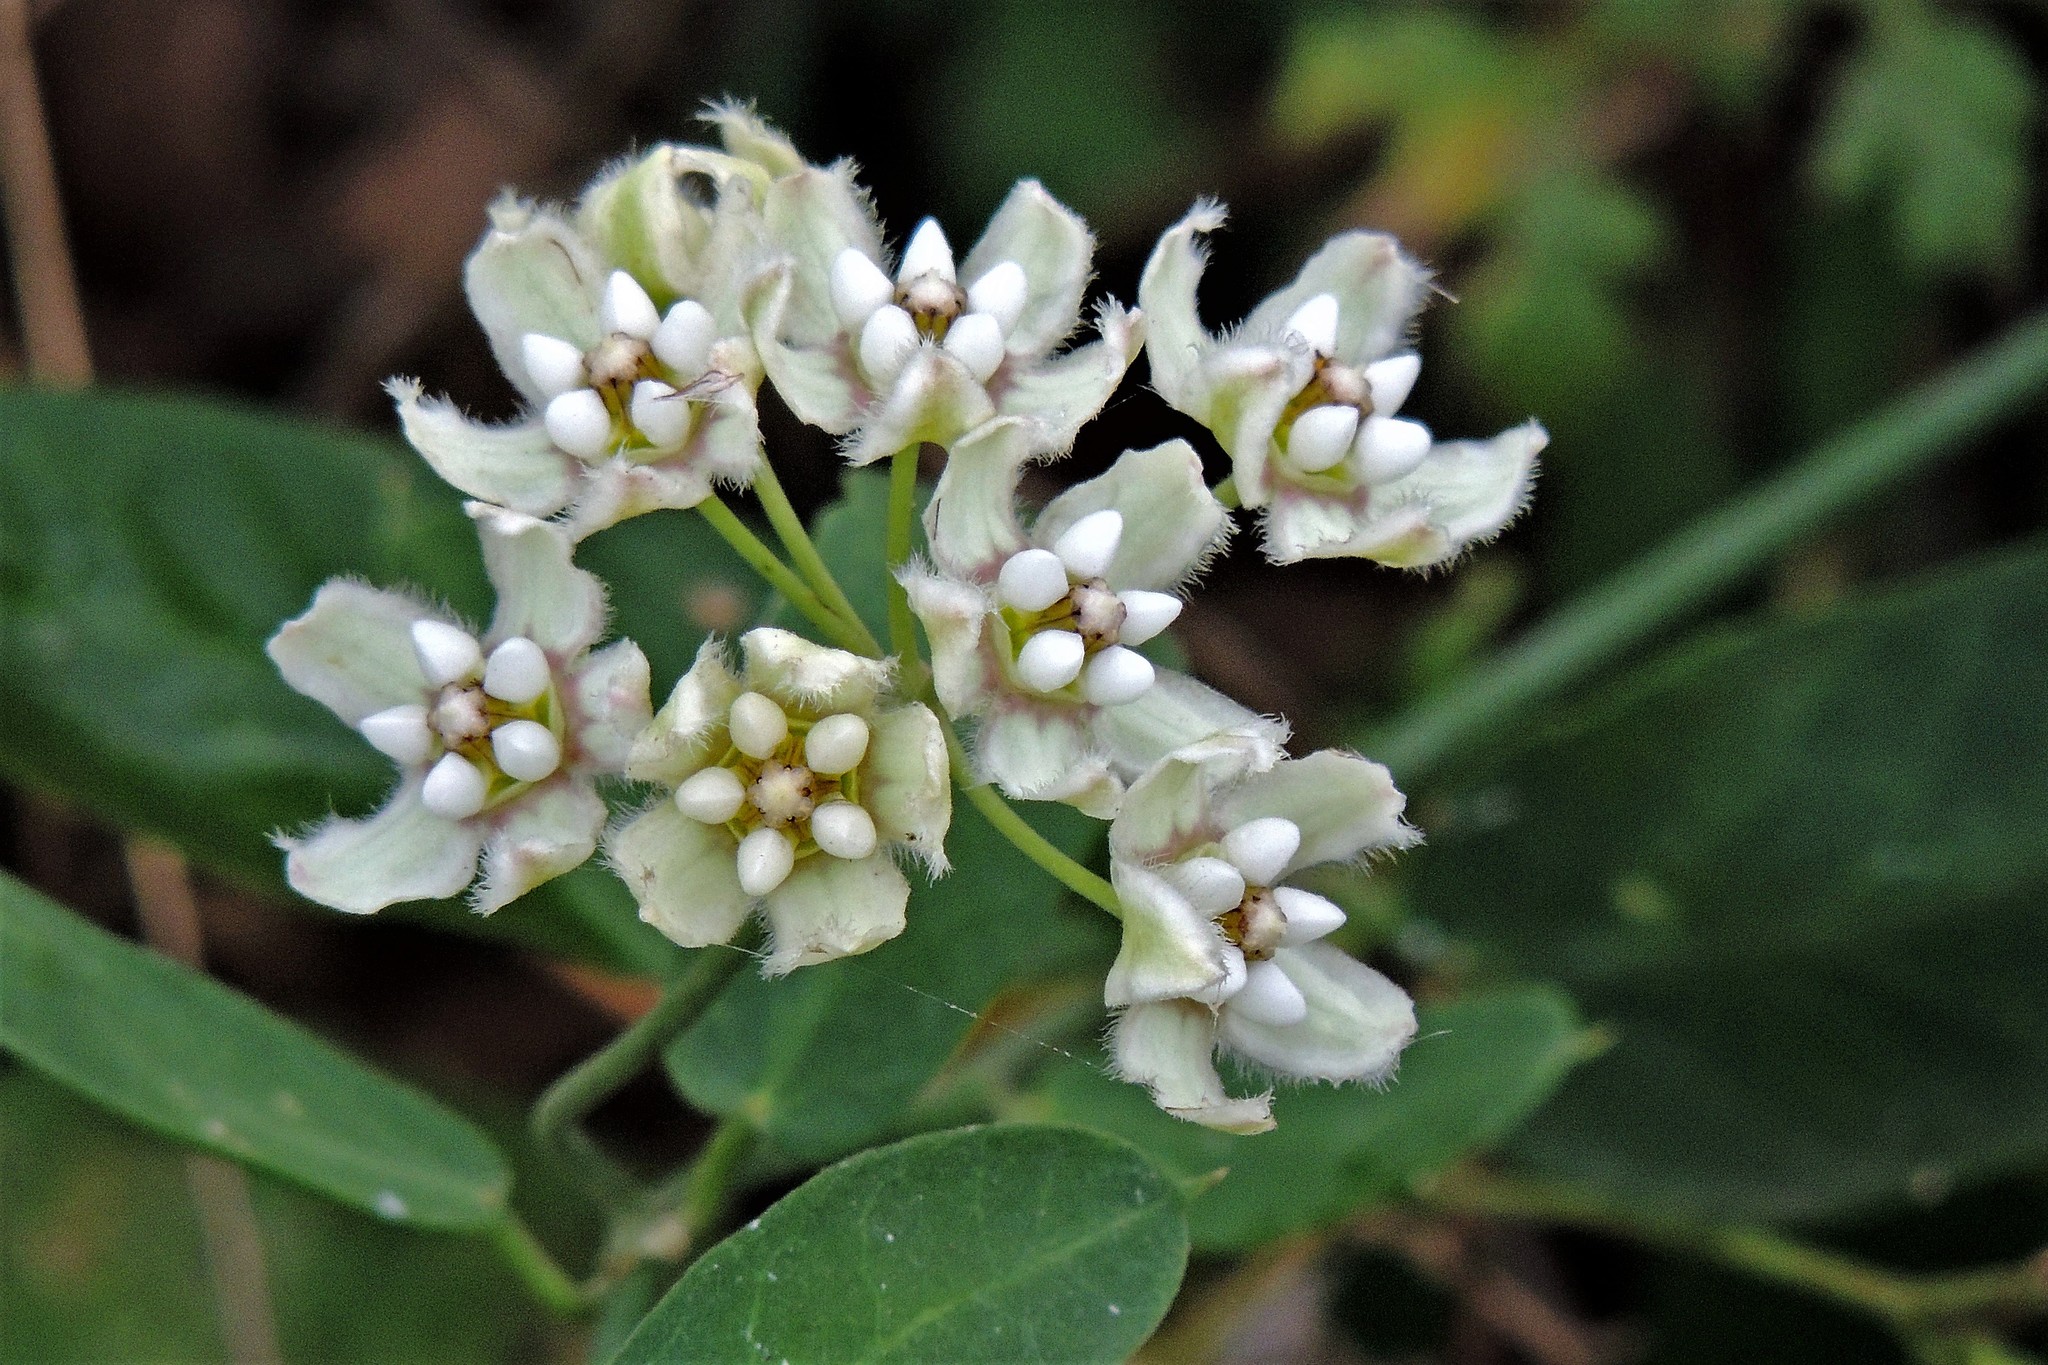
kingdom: Plantae
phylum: Tracheophyta
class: Magnoliopsida
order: Gentianales
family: Apocynaceae
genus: Funastrum
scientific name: Funastrum clausum
